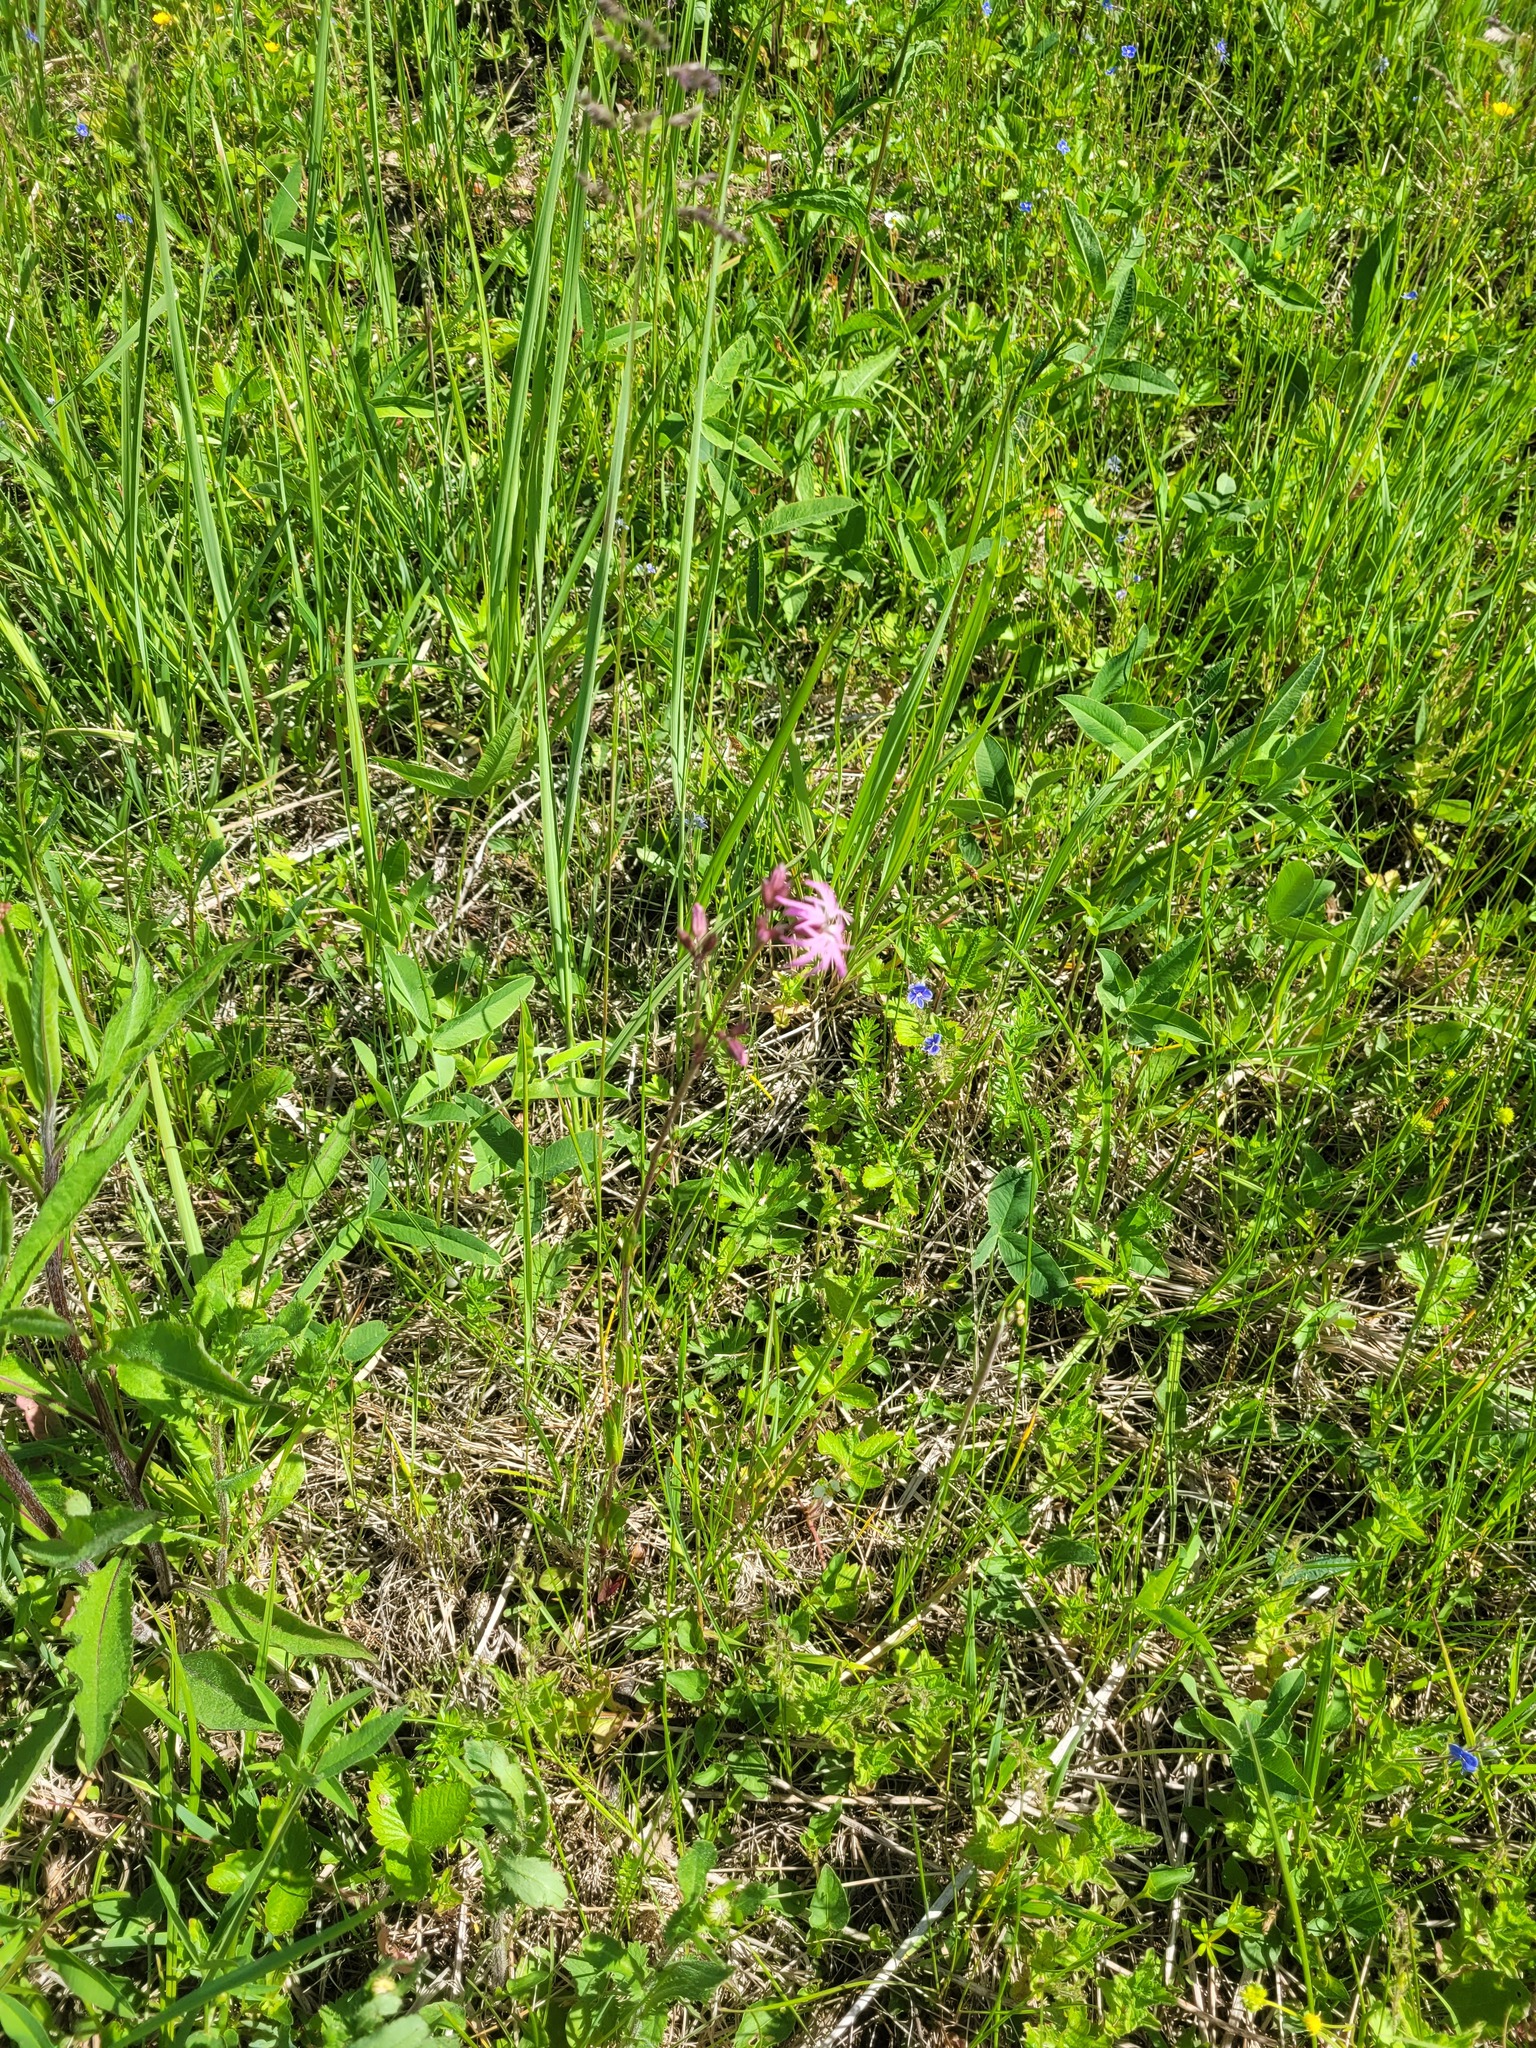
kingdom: Plantae
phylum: Tracheophyta
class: Magnoliopsida
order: Caryophyllales
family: Caryophyllaceae
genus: Silene
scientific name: Silene flos-cuculi
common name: Ragged-robin
